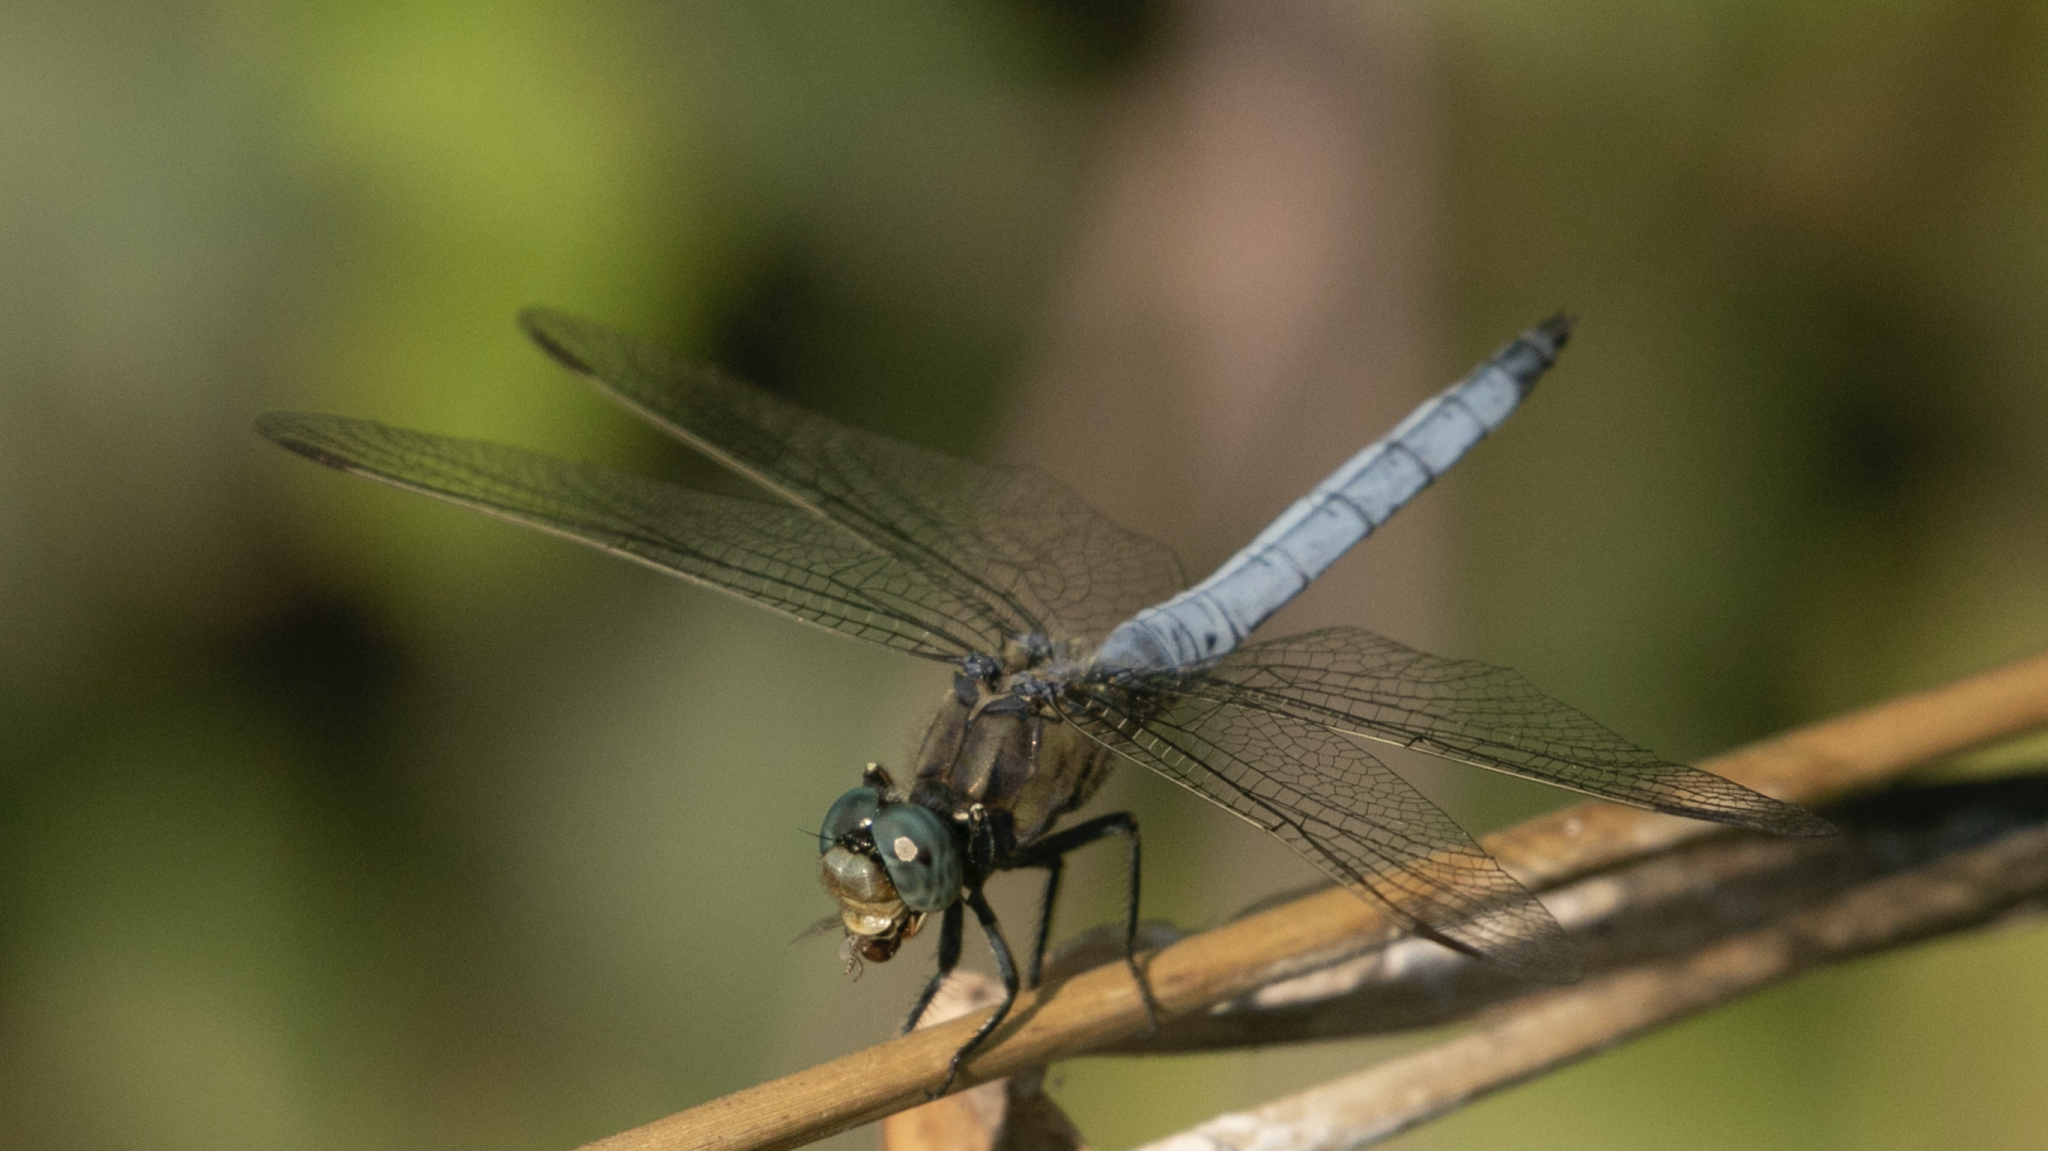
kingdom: Animalia
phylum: Arthropoda
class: Insecta
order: Odonata
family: Libellulidae
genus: Orthetrum
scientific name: Orthetrum coerulescens
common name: Keeled skimmer
